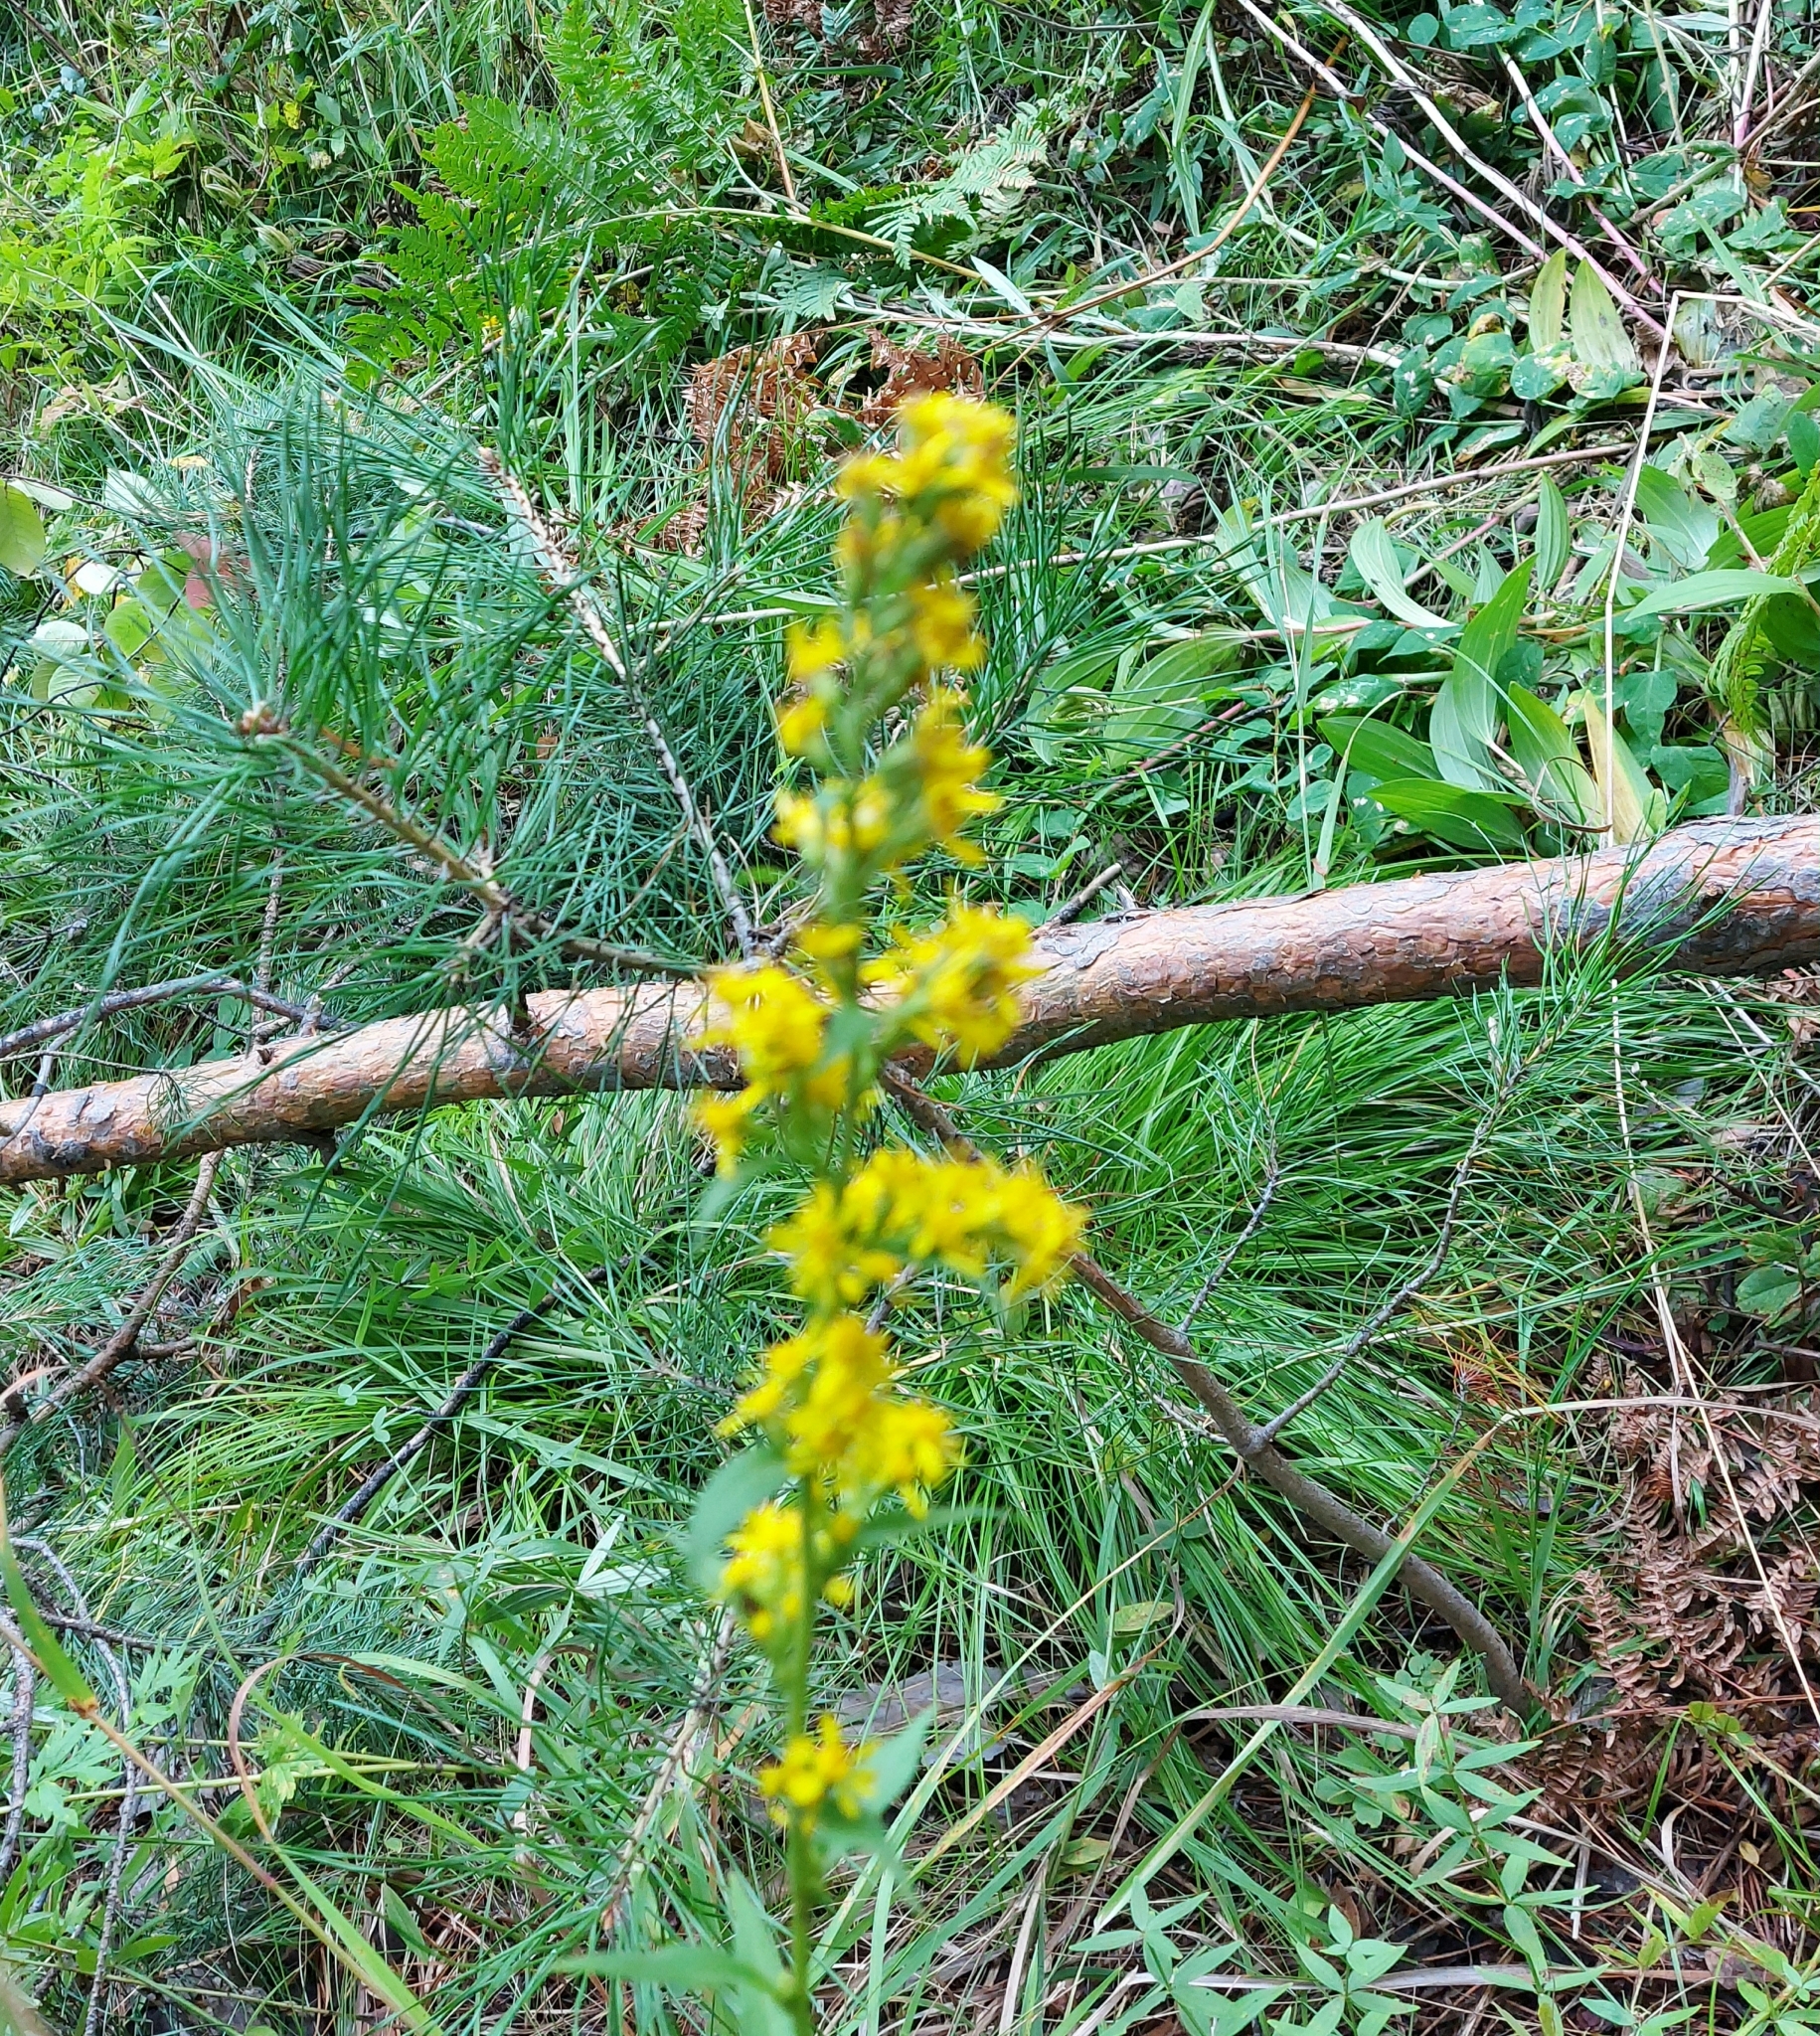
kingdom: Plantae
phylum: Tracheophyta
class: Magnoliopsida
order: Asterales
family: Asteraceae
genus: Solidago
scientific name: Solidago virgaurea
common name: Goldenrod
